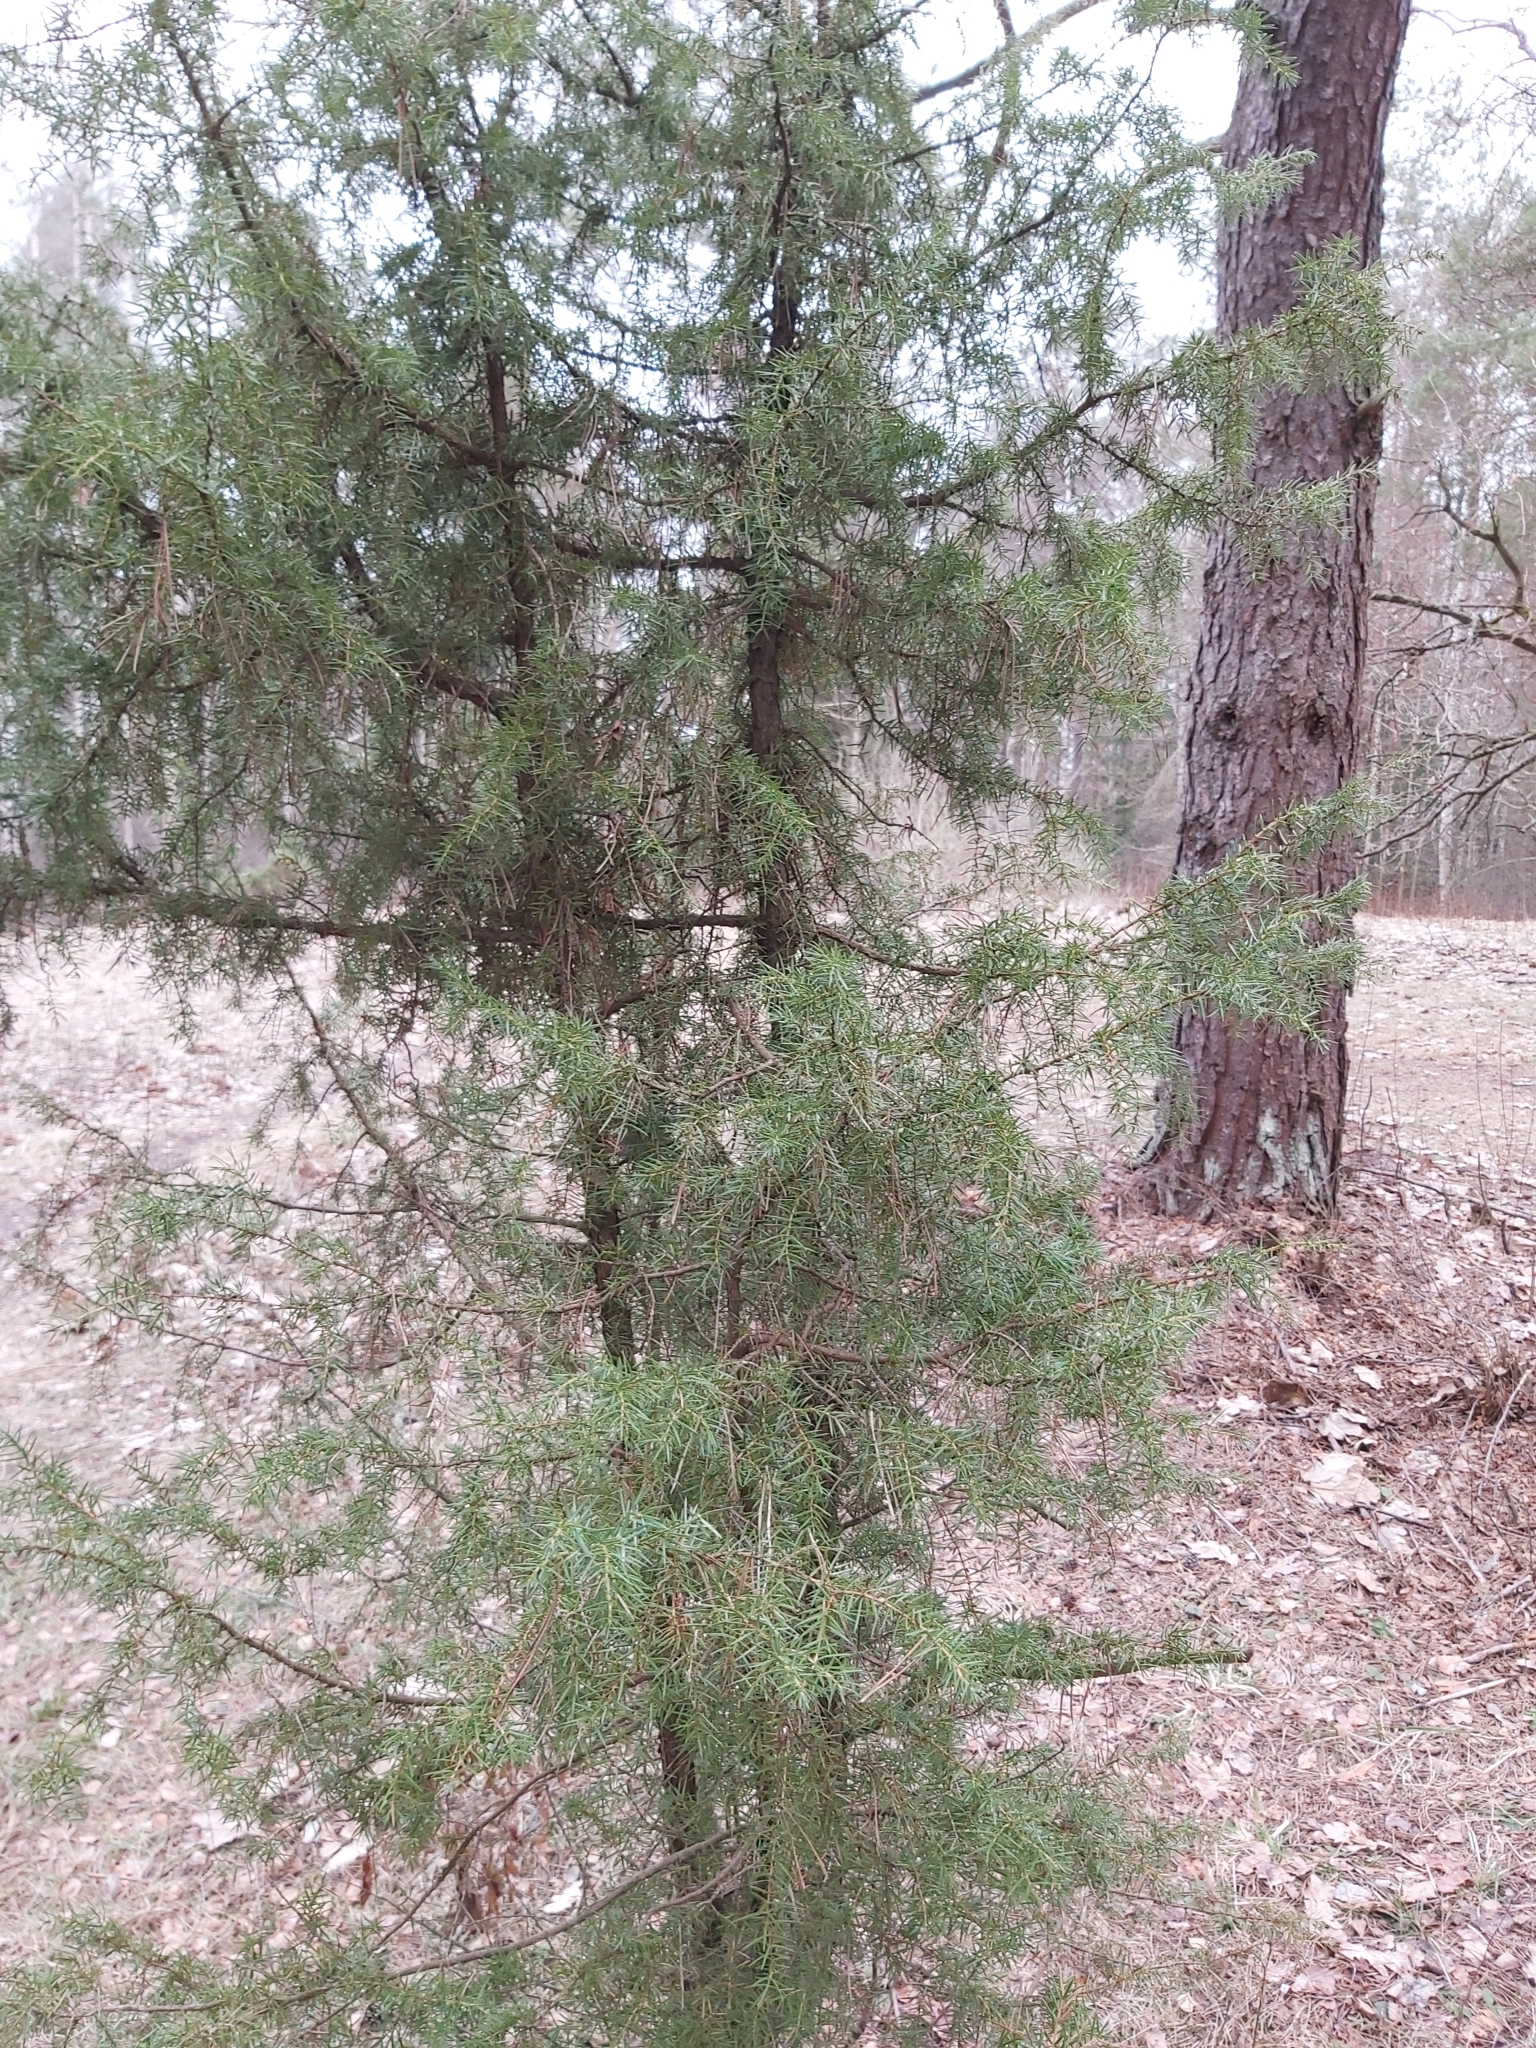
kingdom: Plantae
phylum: Tracheophyta
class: Pinopsida
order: Pinales
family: Cupressaceae
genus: Juniperus
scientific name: Juniperus communis
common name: Common juniper
